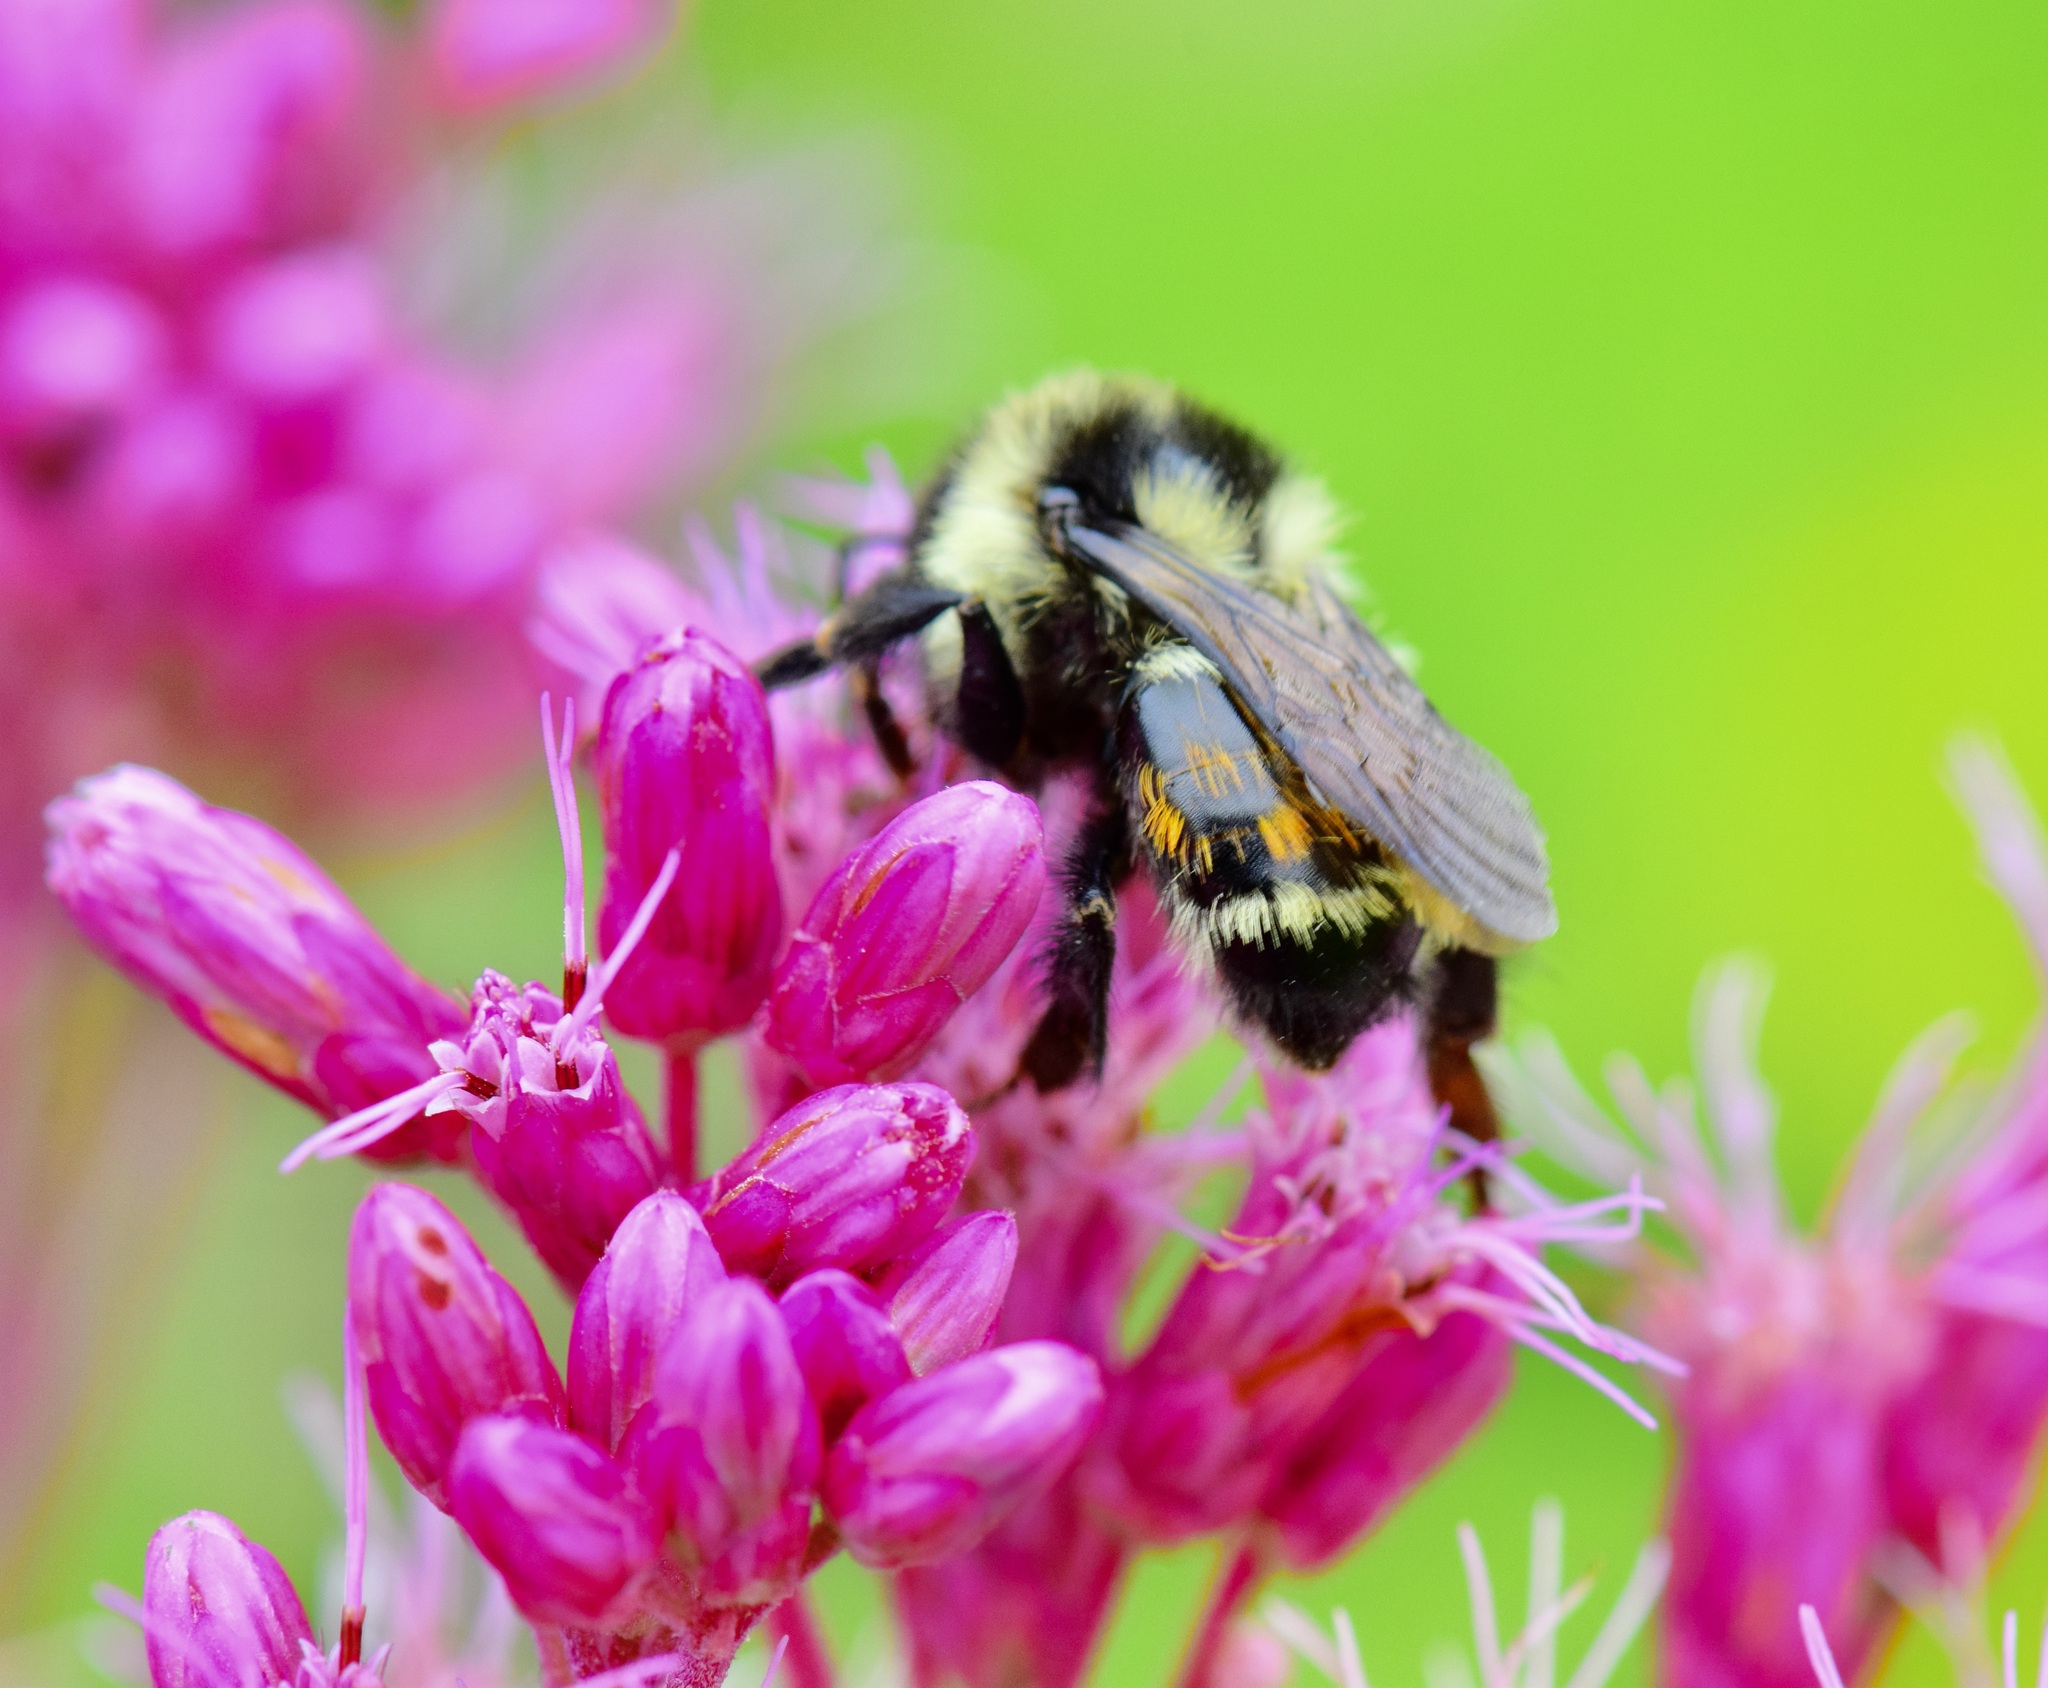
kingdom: Animalia
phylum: Arthropoda
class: Insecta
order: Hymenoptera
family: Apidae
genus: Bombus
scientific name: Bombus ternarius
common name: Tri-colored bumble bee
